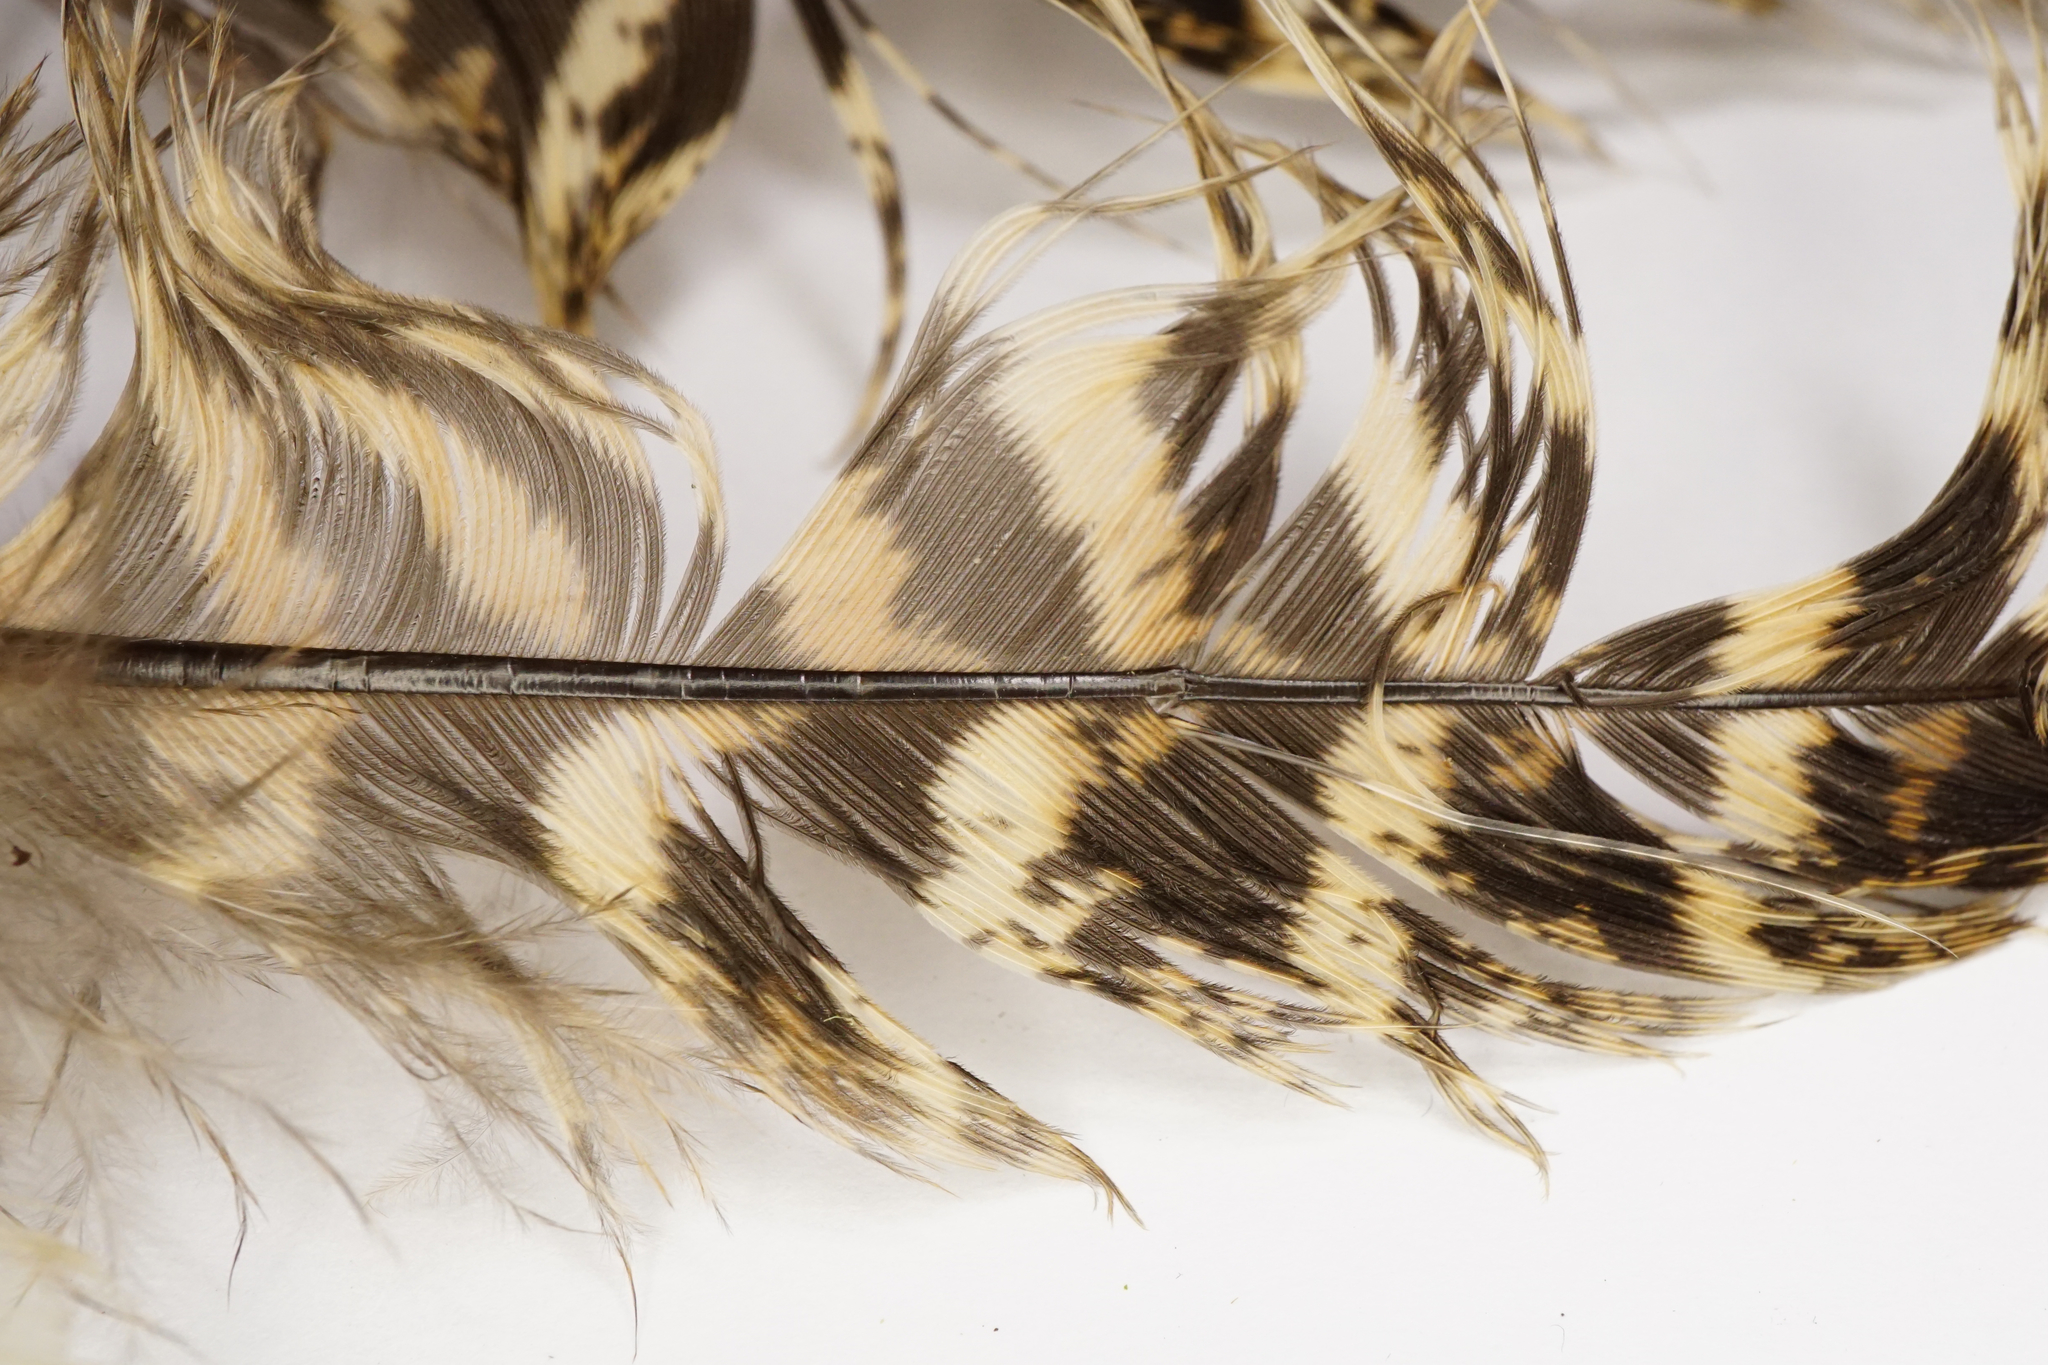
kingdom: Animalia
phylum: Chordata
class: Aves
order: Galliformes
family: Phasianidae
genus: Phasianus
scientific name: Phasianus colchicus
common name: Common pheasant
